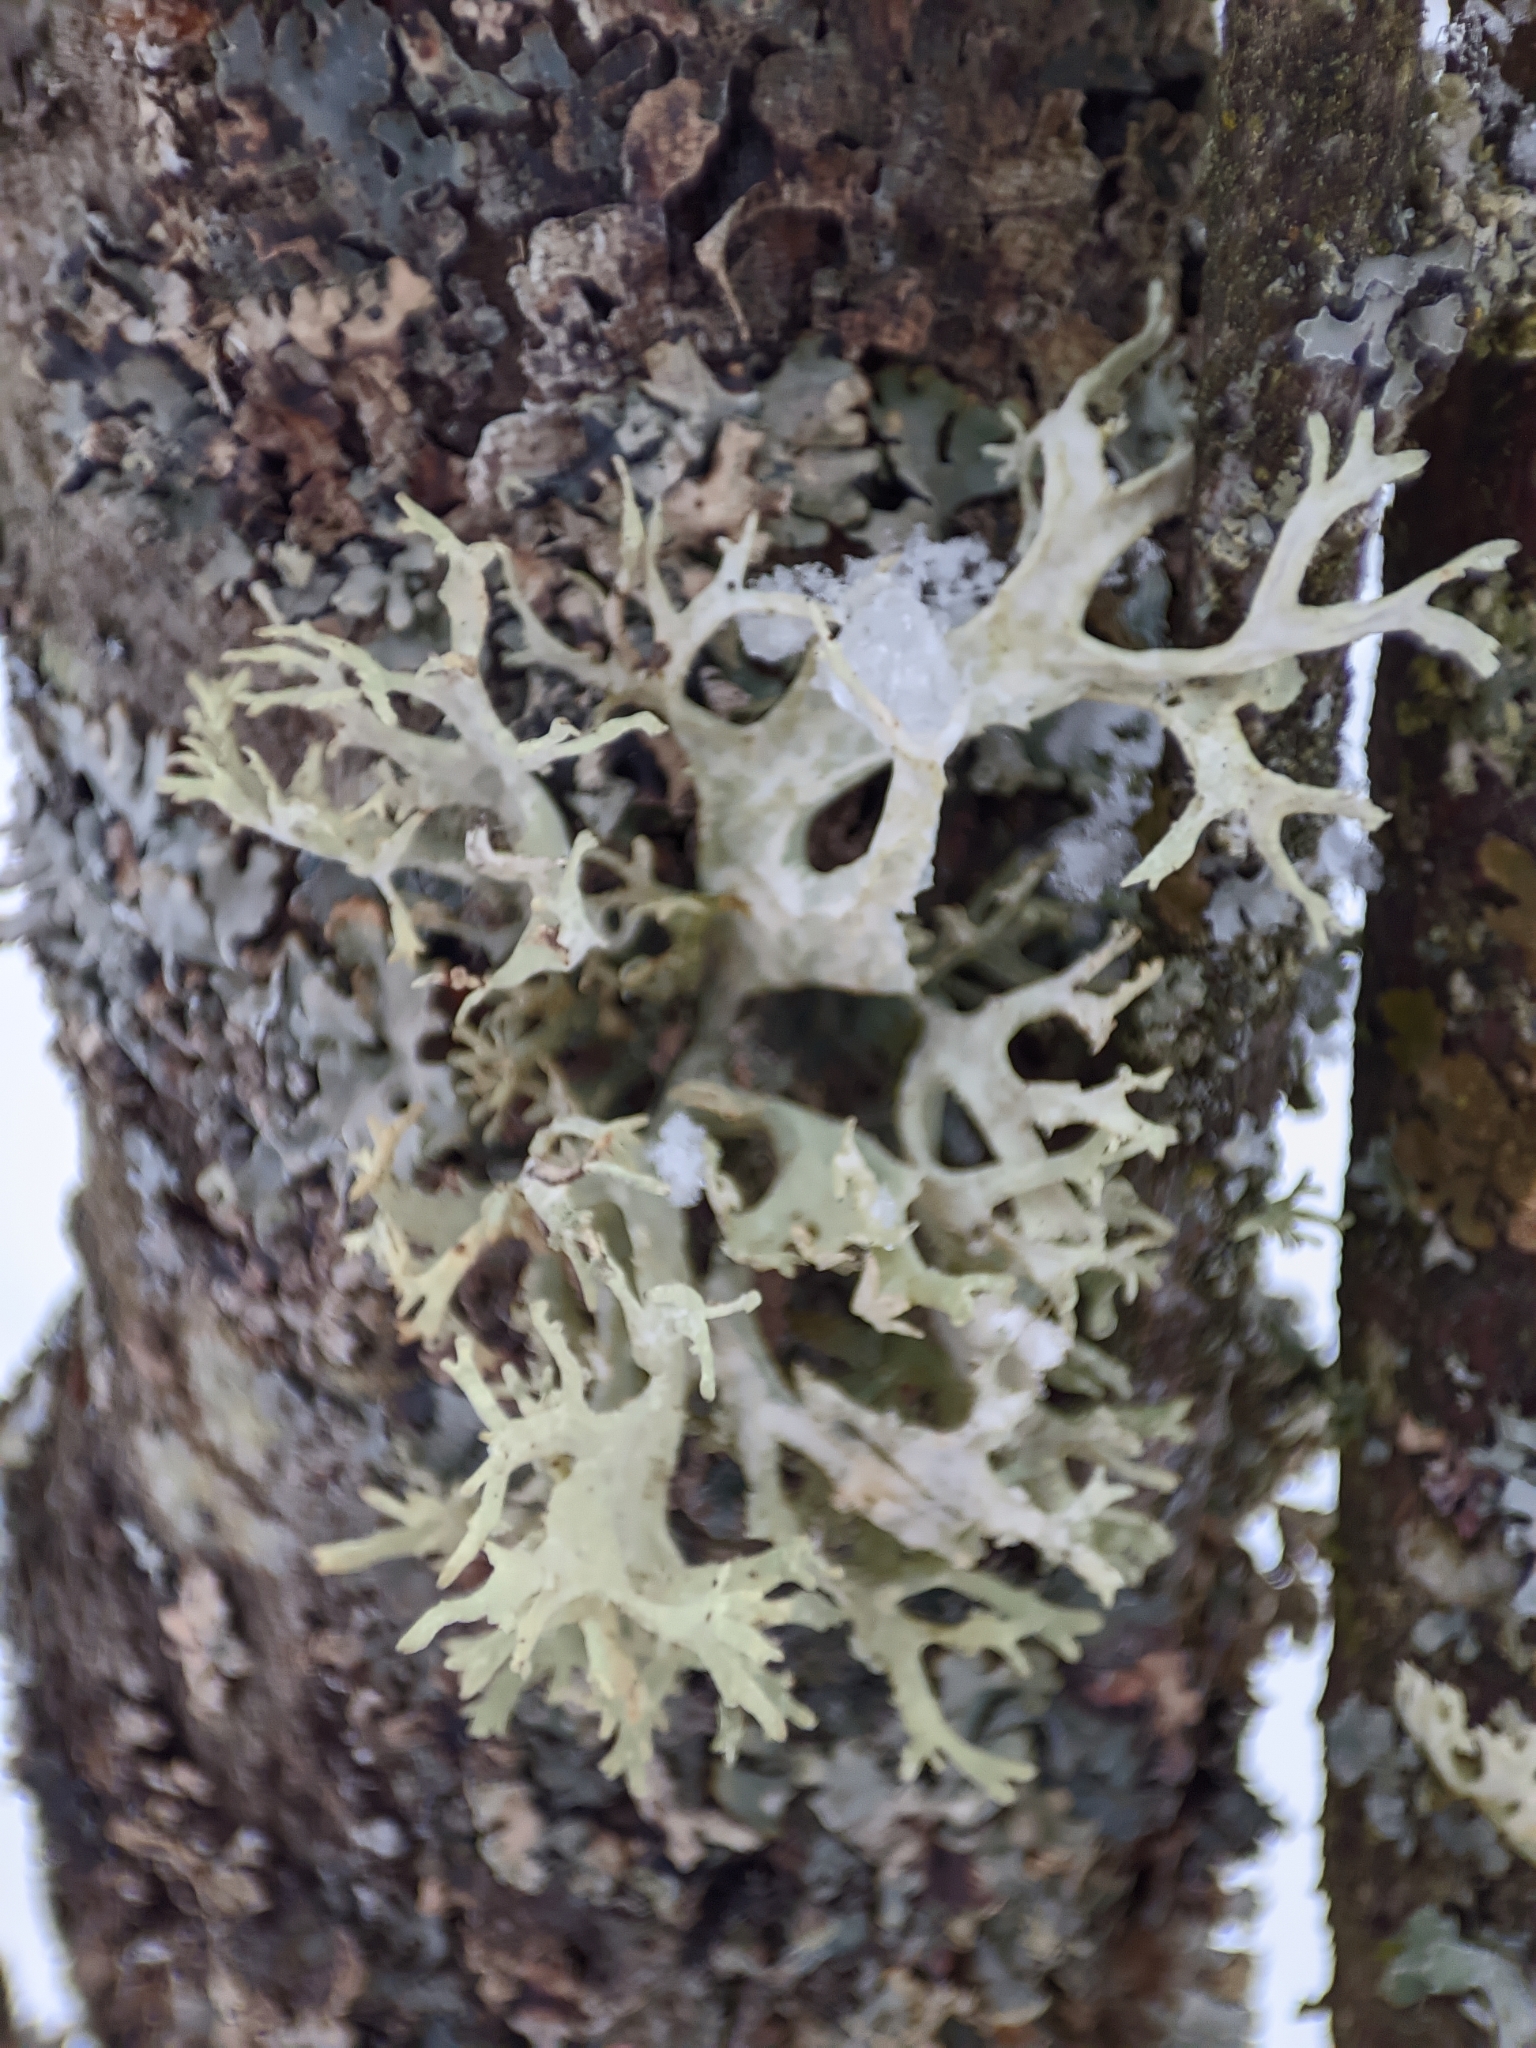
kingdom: Fungi
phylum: Ascomycota
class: Lecanoromycetes
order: Lecanorales
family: Parmeliaceae
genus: Evernia
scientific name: Evernia prunastri
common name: Oak moss
